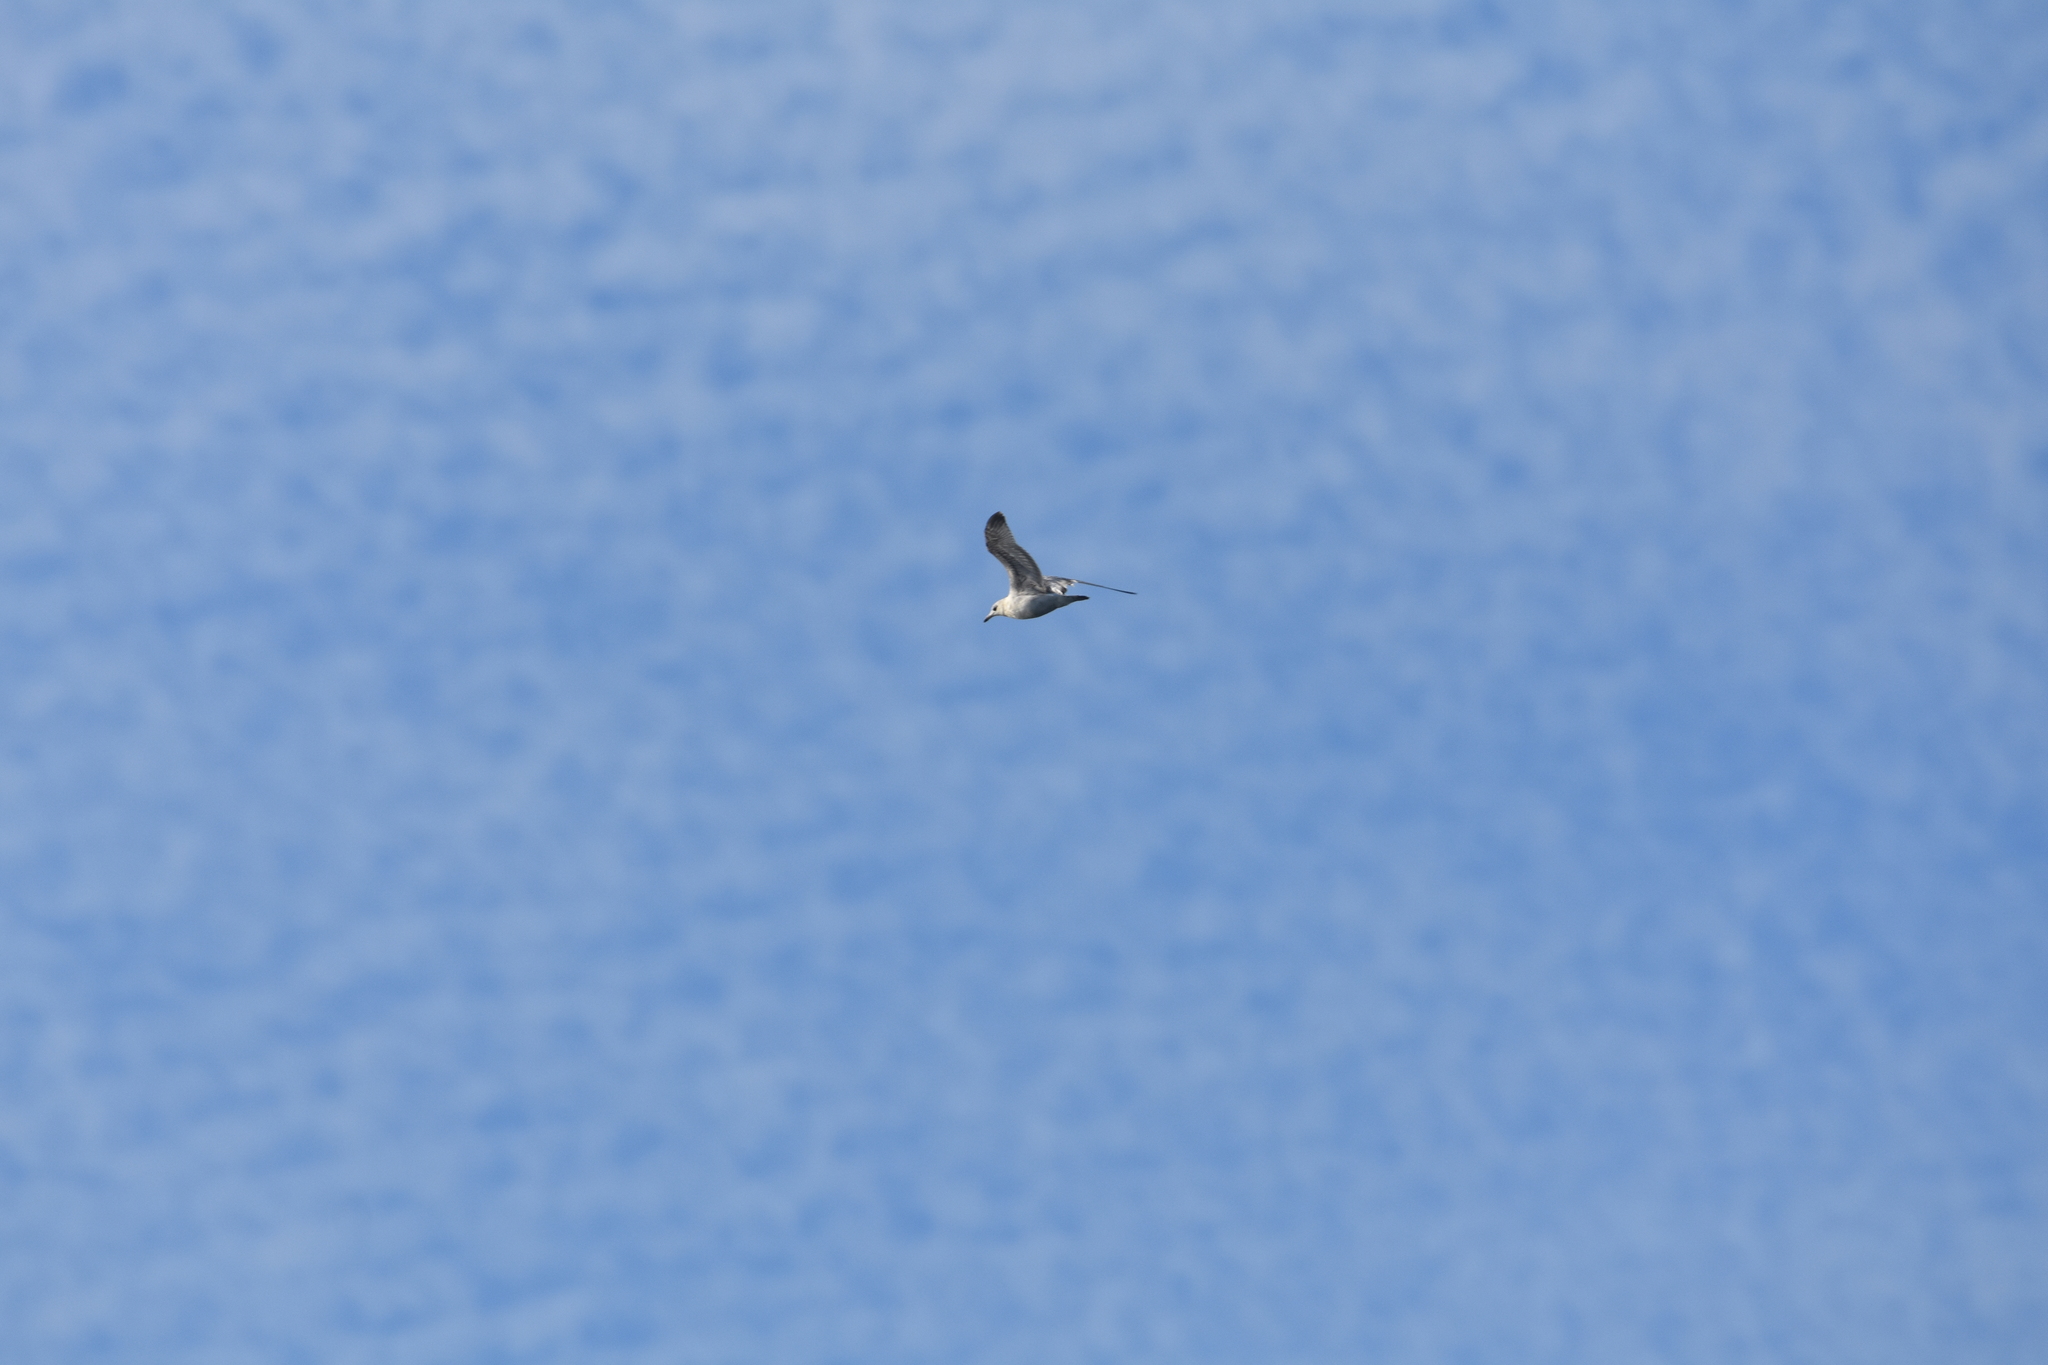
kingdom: Animalia
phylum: Chordata
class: Aves
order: Charadriiformes
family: Laridae
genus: Larus
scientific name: Larus delawarensis
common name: Ring-billed gull
